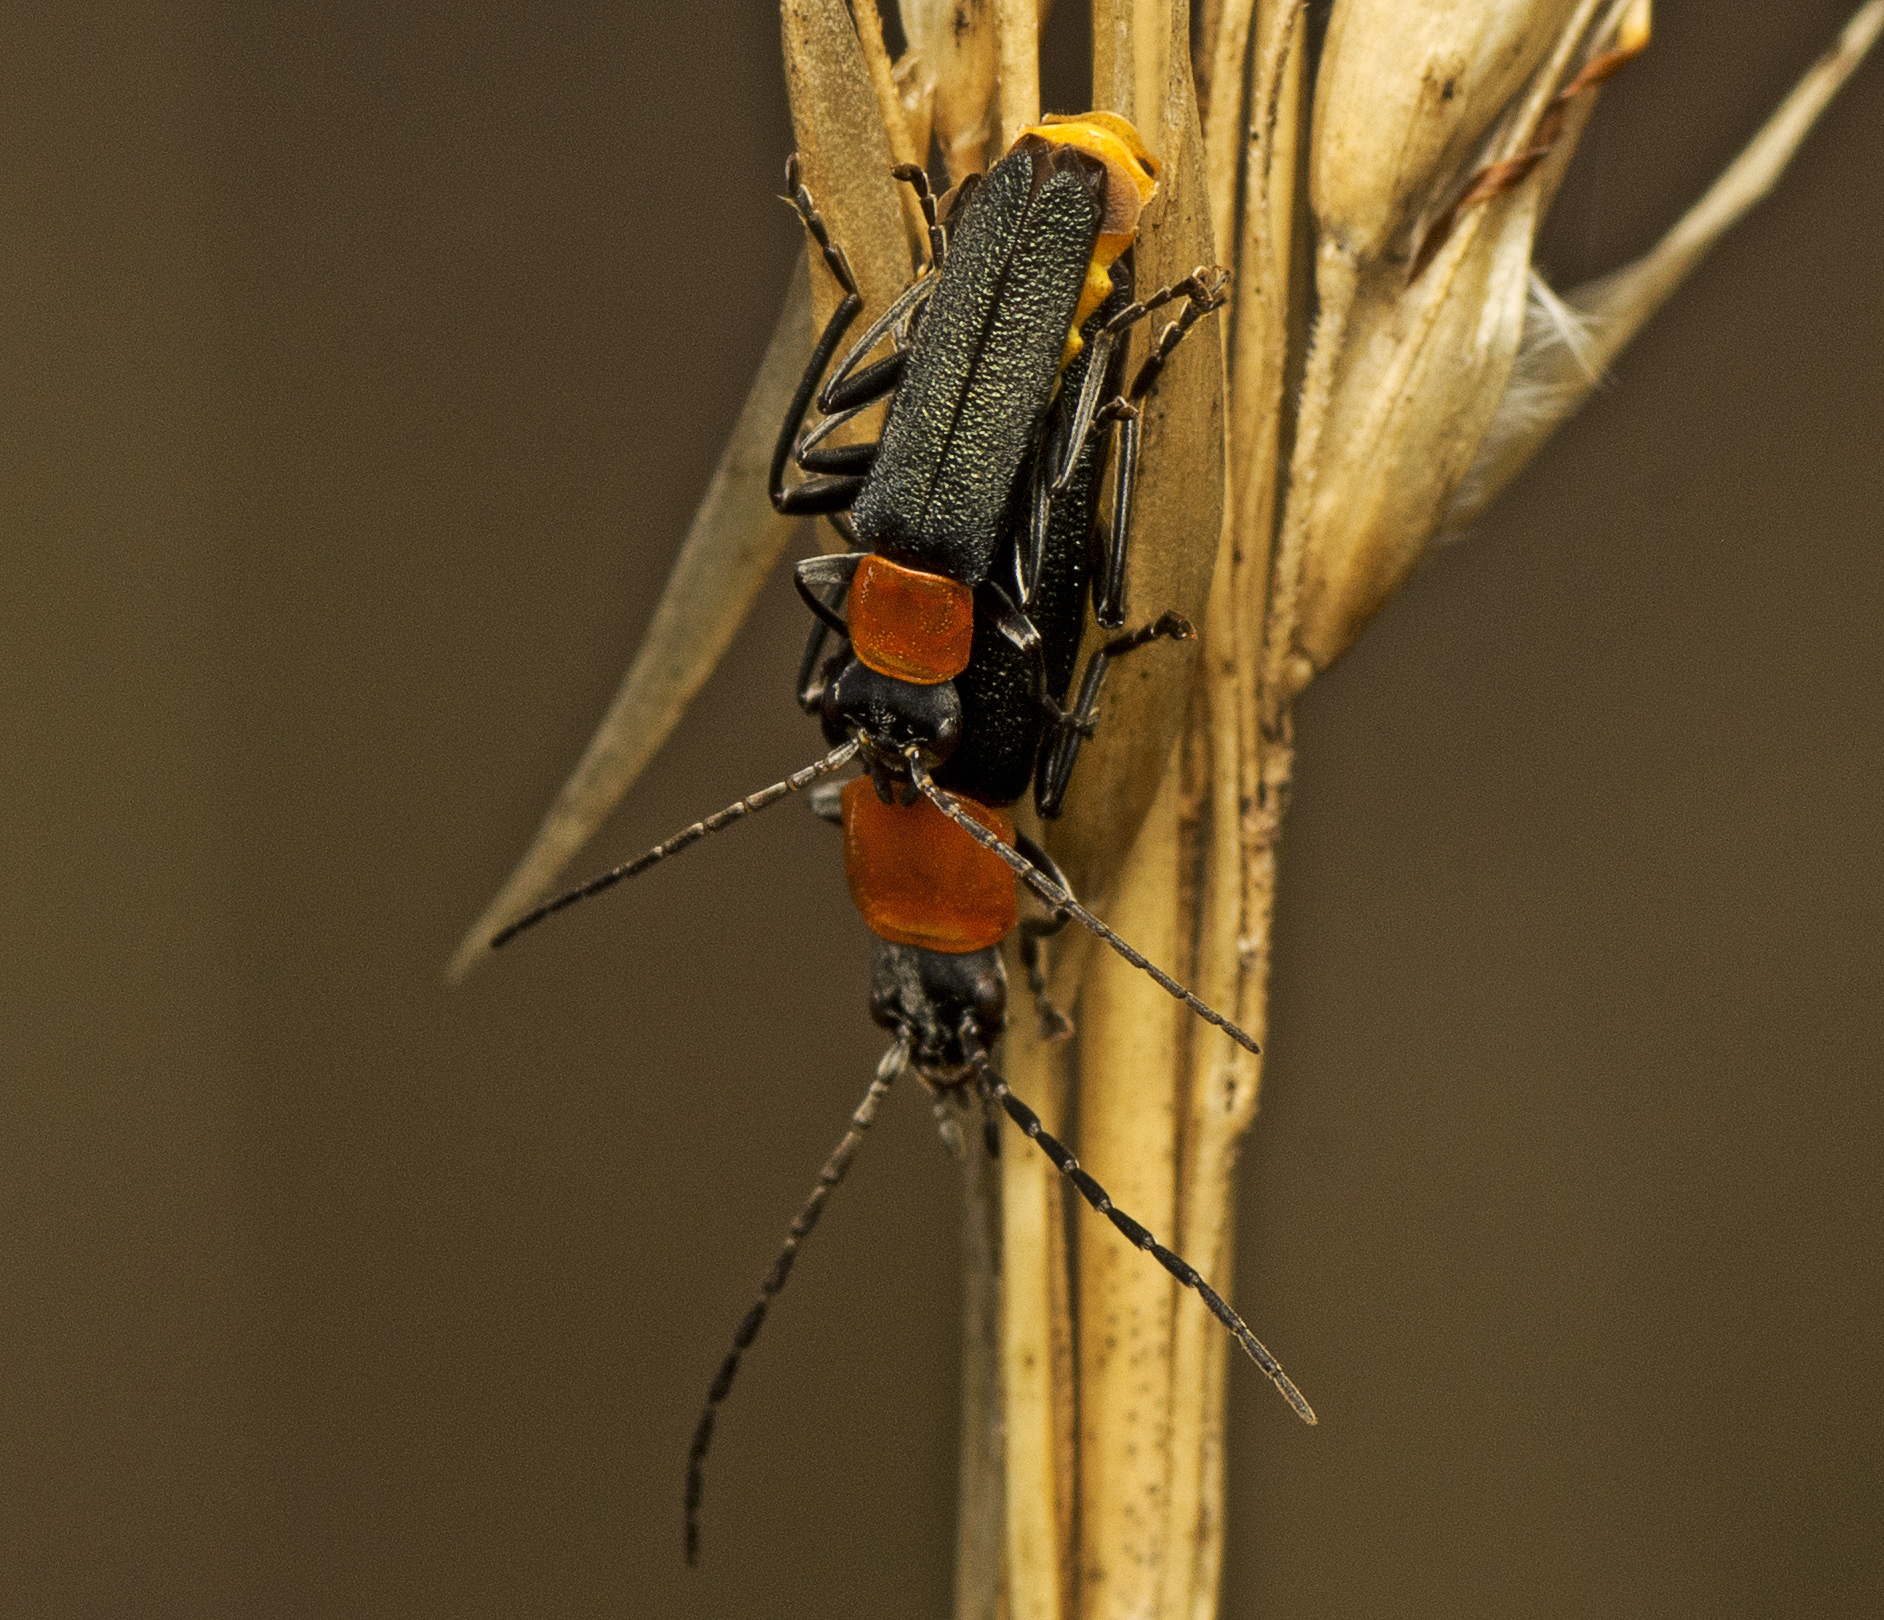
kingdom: Animalia
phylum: Arthropoda
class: Insecta
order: Coleoptera
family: Cantharidae
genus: Chauliognathus
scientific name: Chauliognathus
